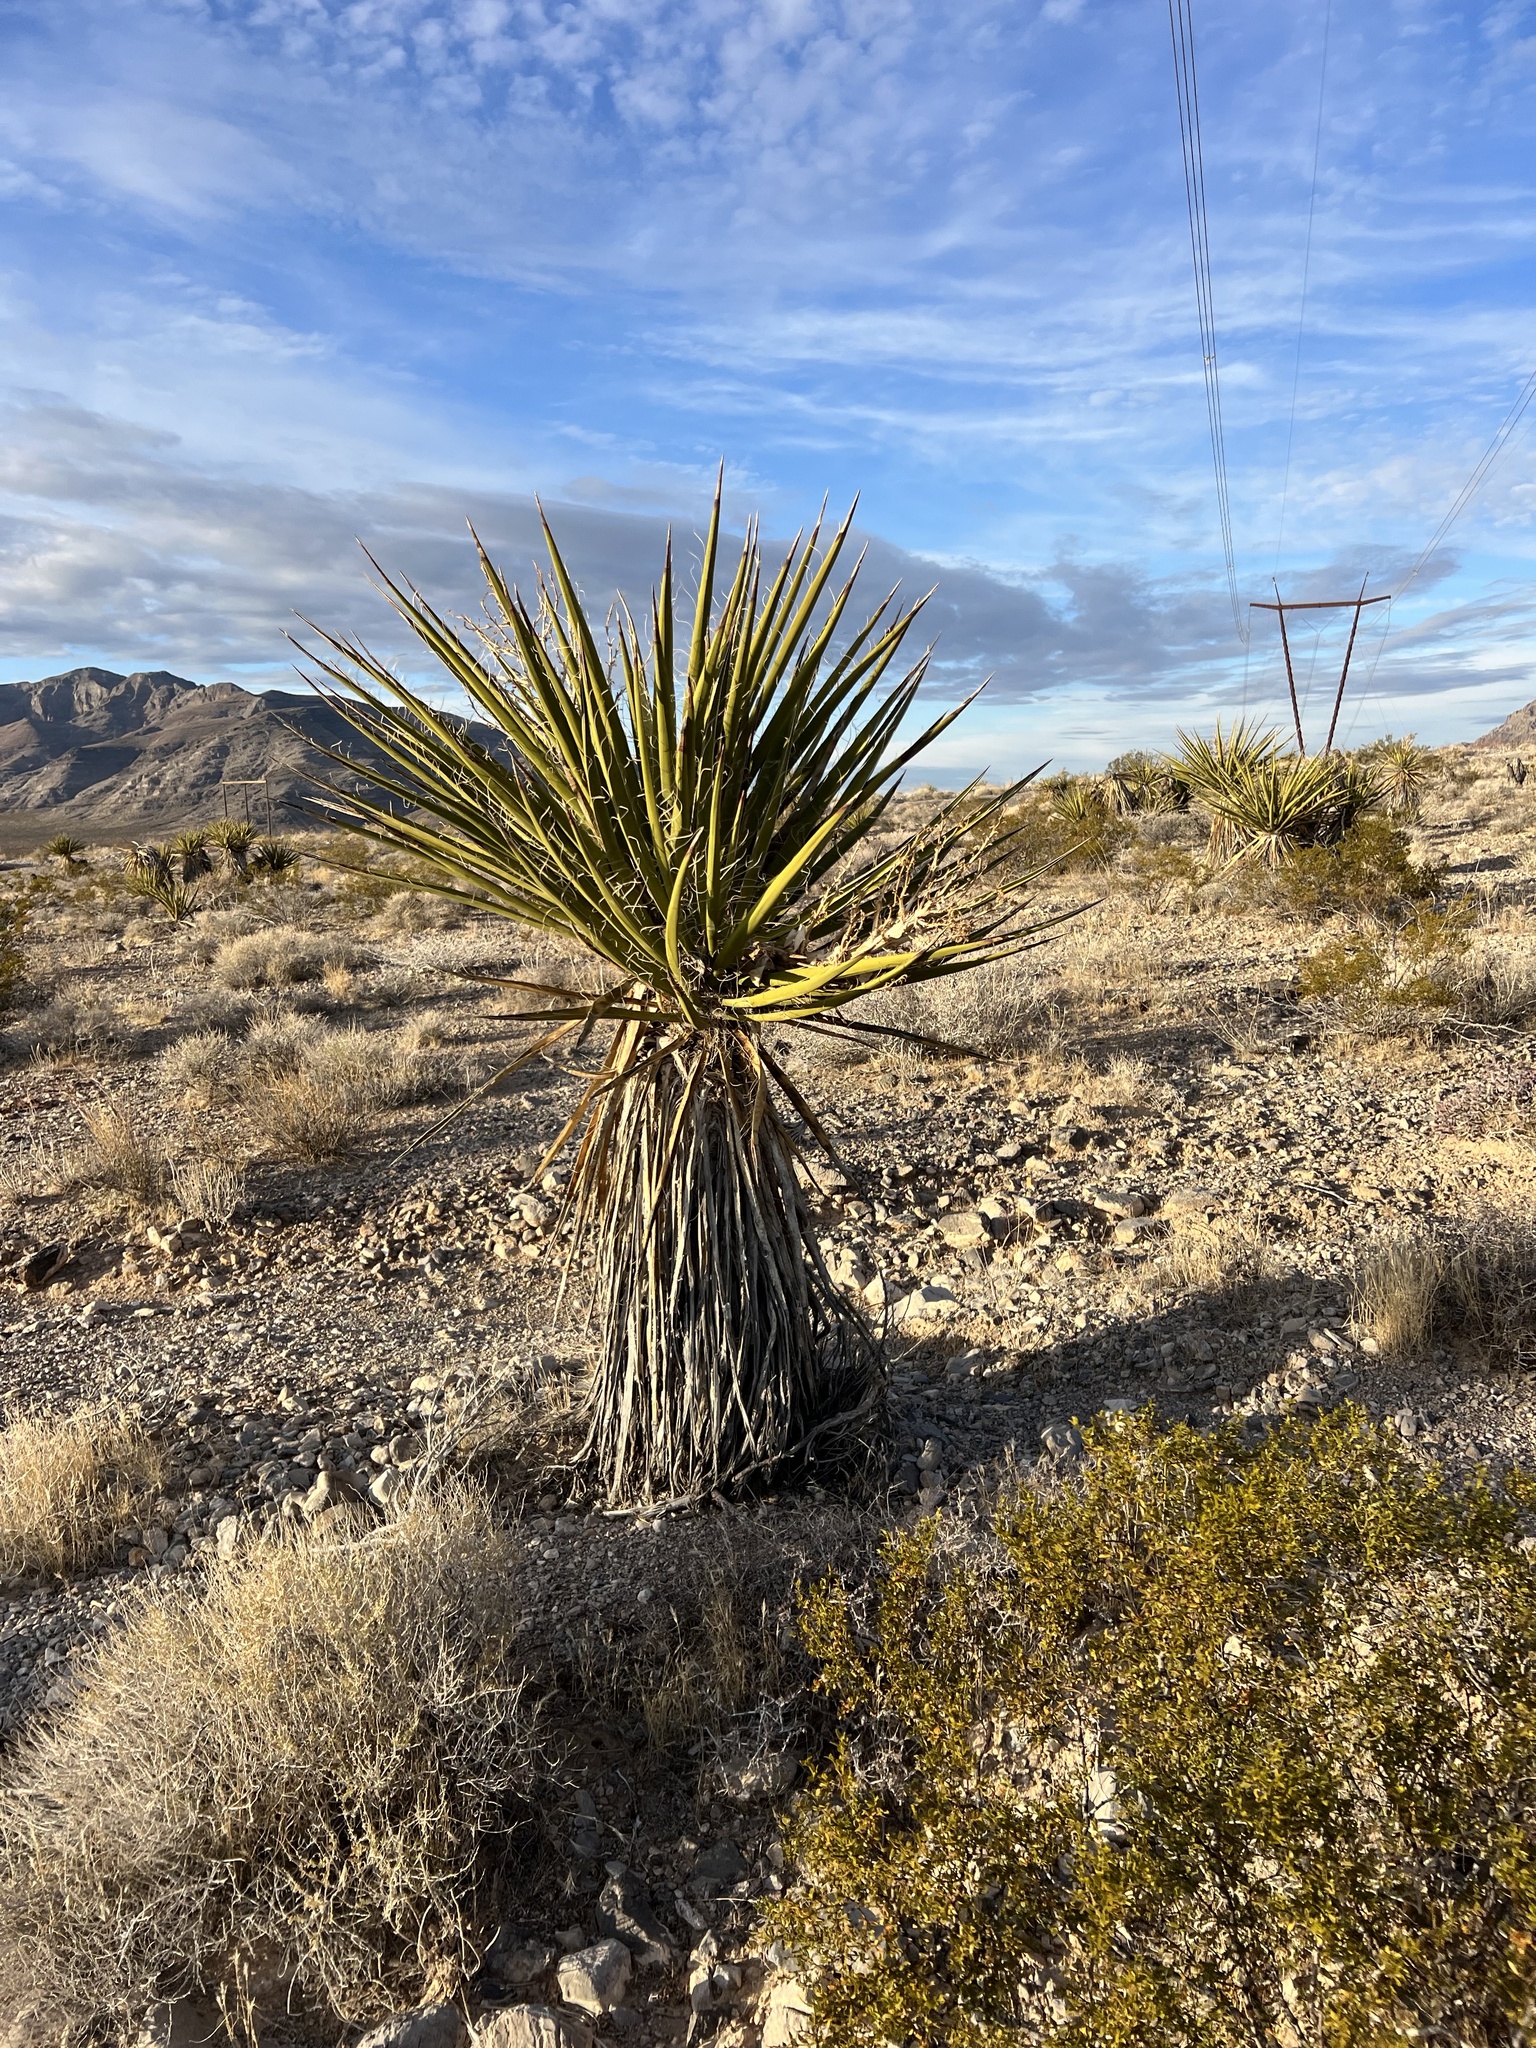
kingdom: Plantae
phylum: Tracheophyta
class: Liliopsida
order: Asparagales
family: Asparagaceae
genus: Yucca
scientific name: Yucca schidigera
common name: Mojave yucca
